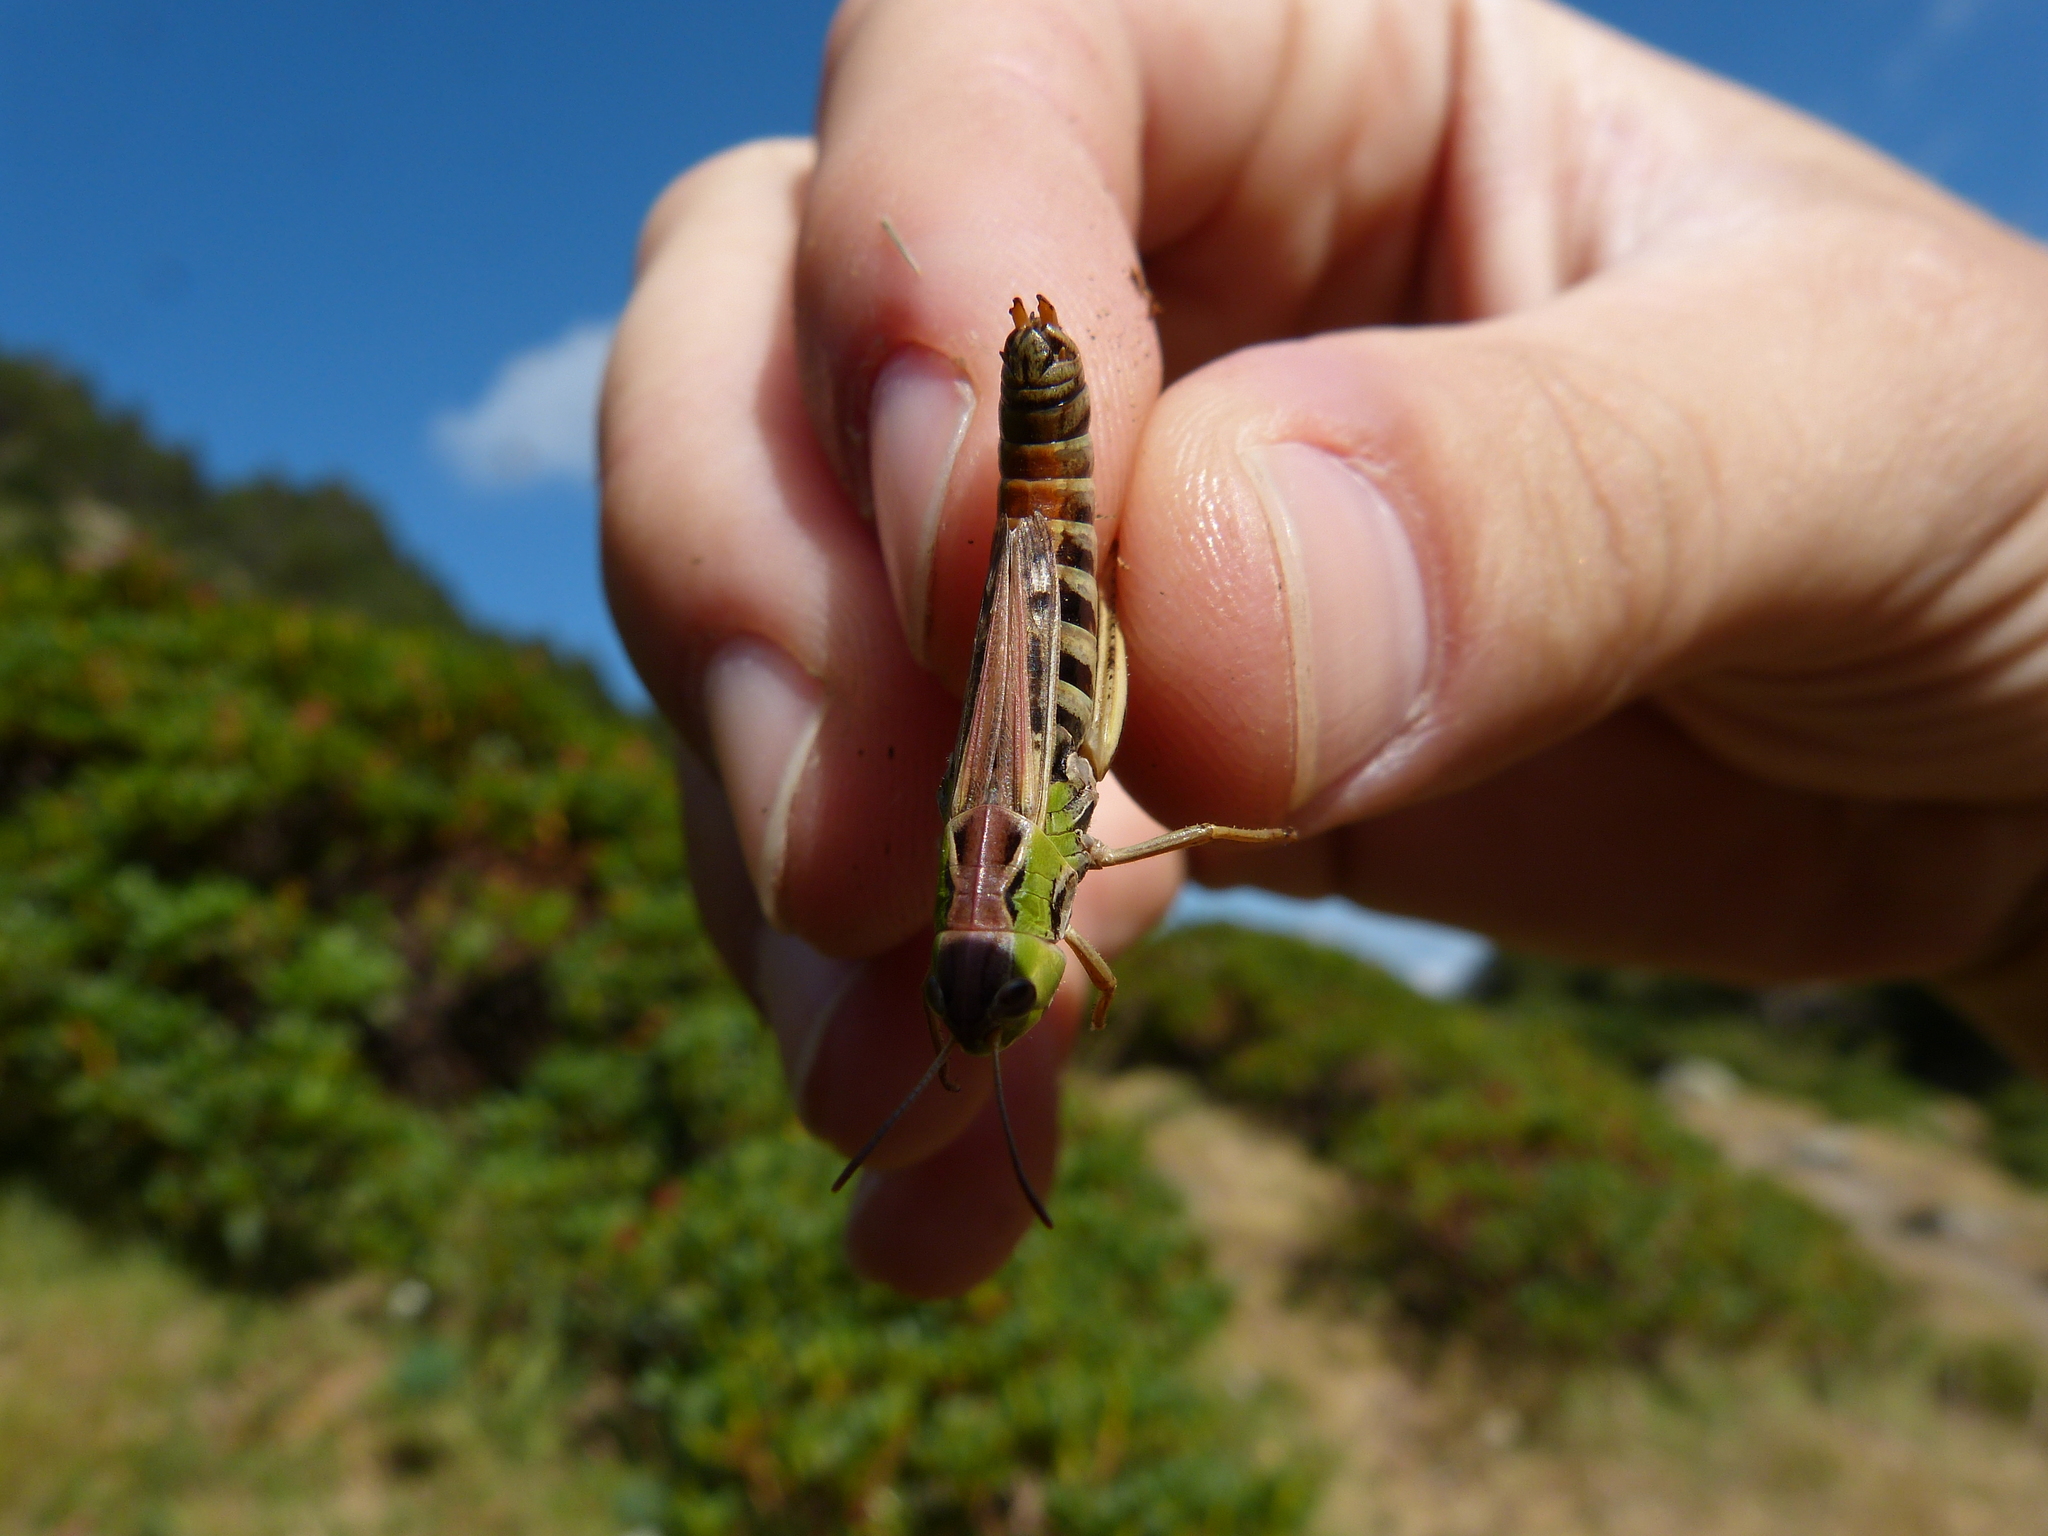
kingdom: Animalia
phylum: Arthropoda
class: Insecta
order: Orthoptera
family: Acrididae
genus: Stenobothrus
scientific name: Stenobothrus nigromaculatus
